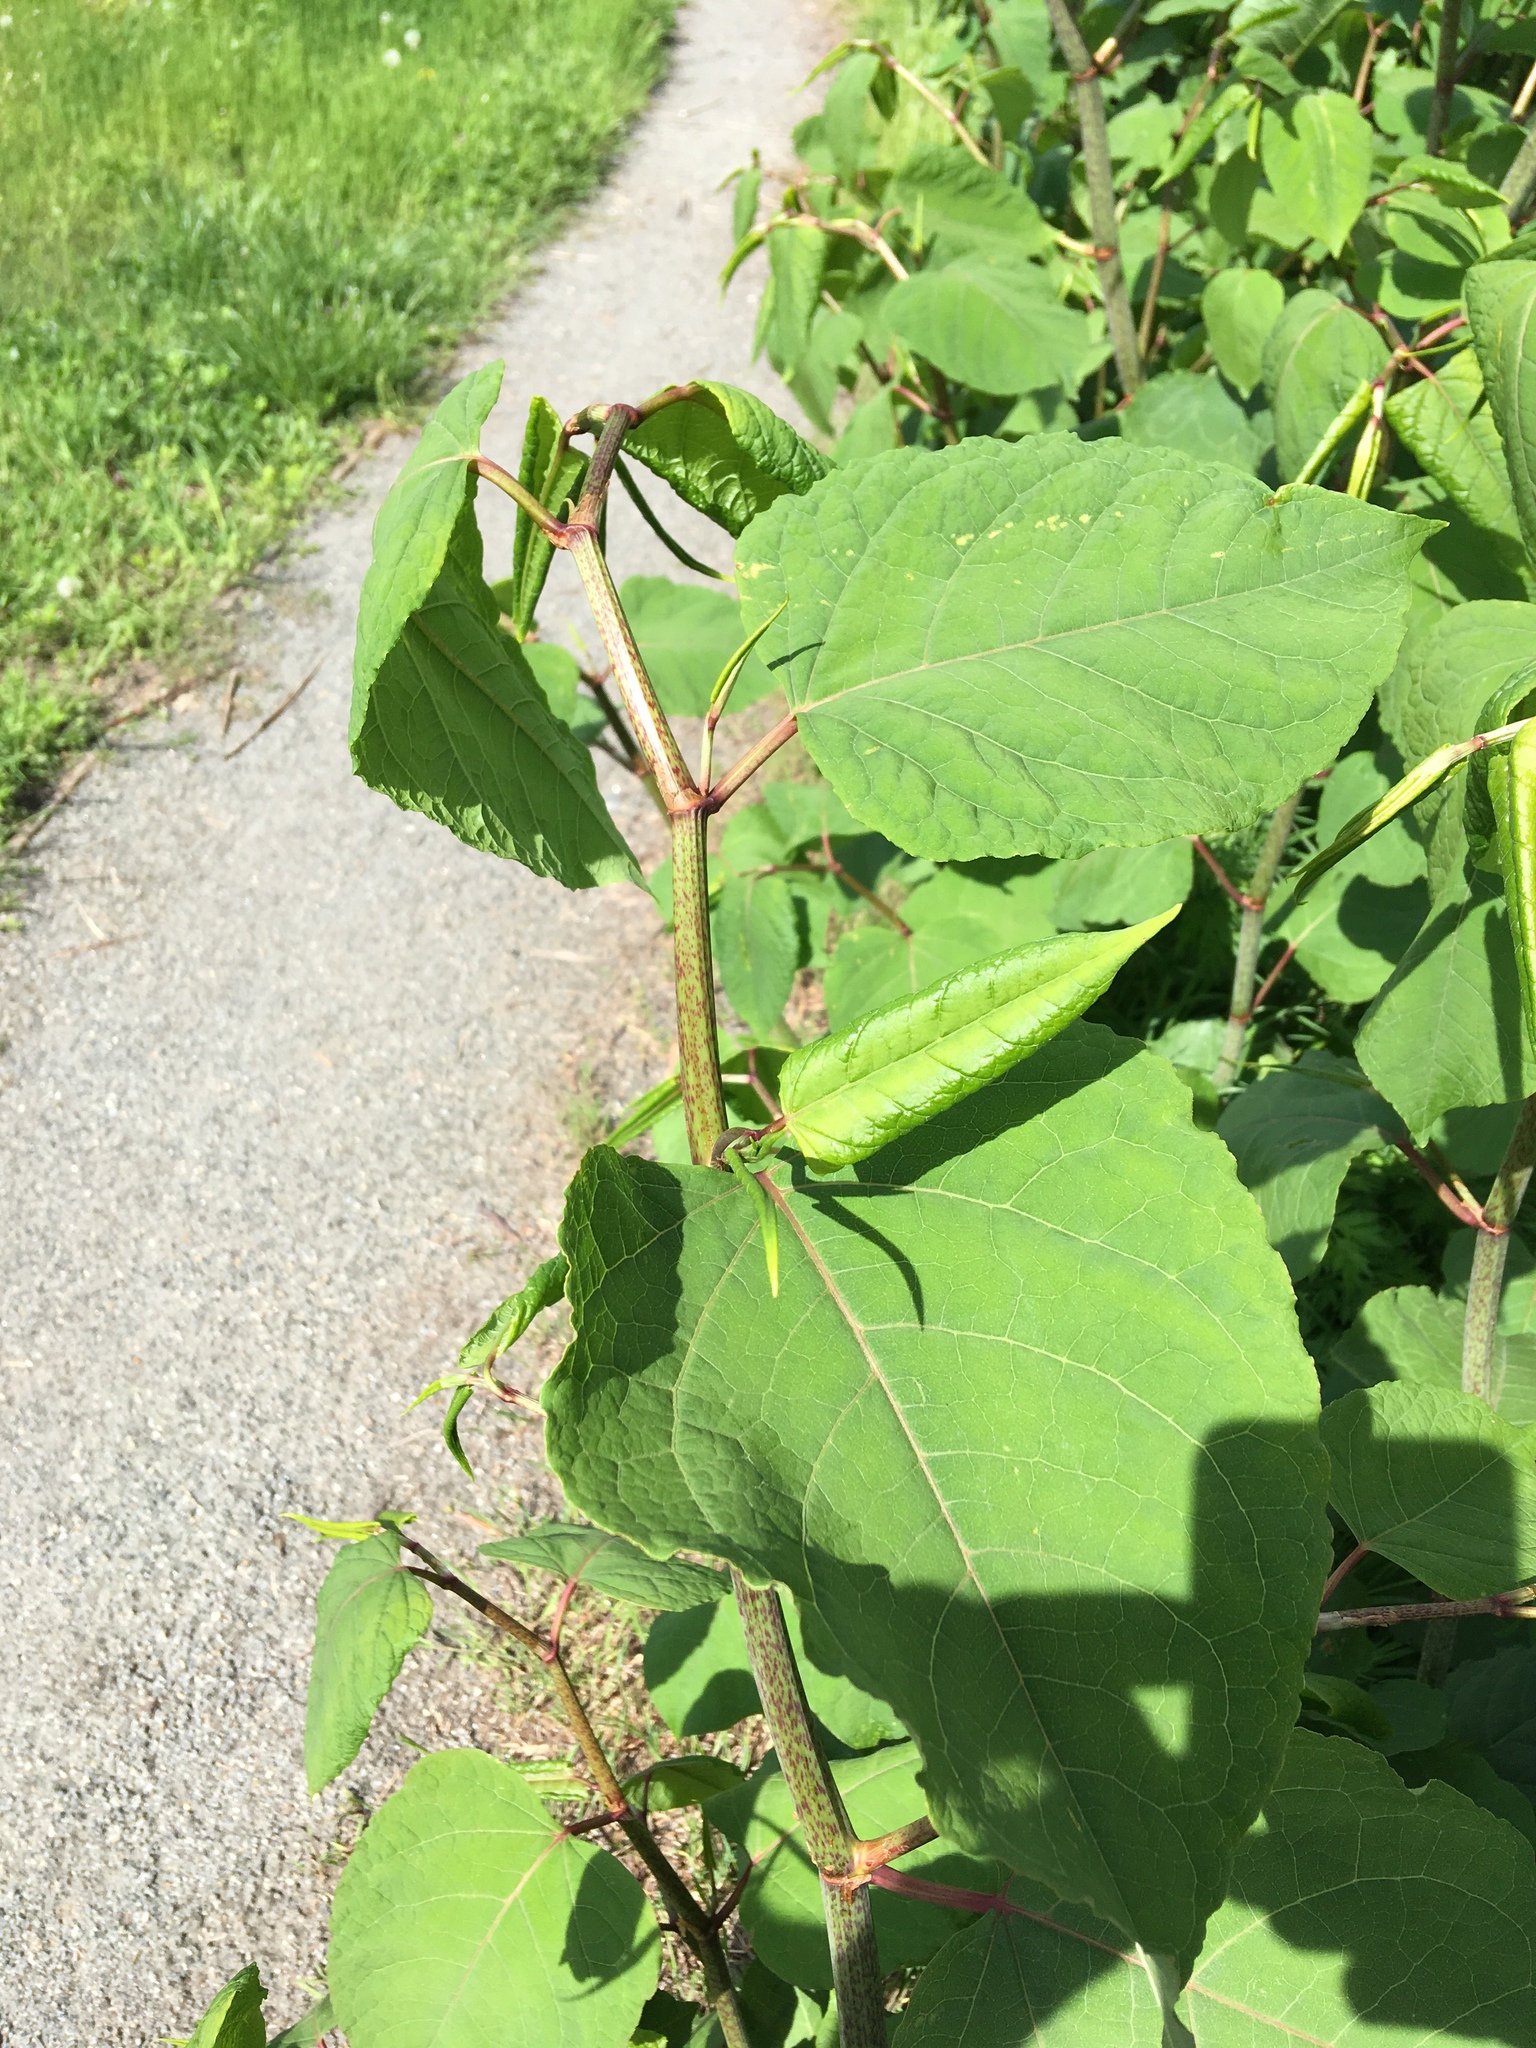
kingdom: Plantae
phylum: Tracheophyta
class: Magnoliopsida
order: Caryophyllales
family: Polygonaceae
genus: Reynoutria
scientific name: Reynoutria japonica
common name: Japanese knotweed
